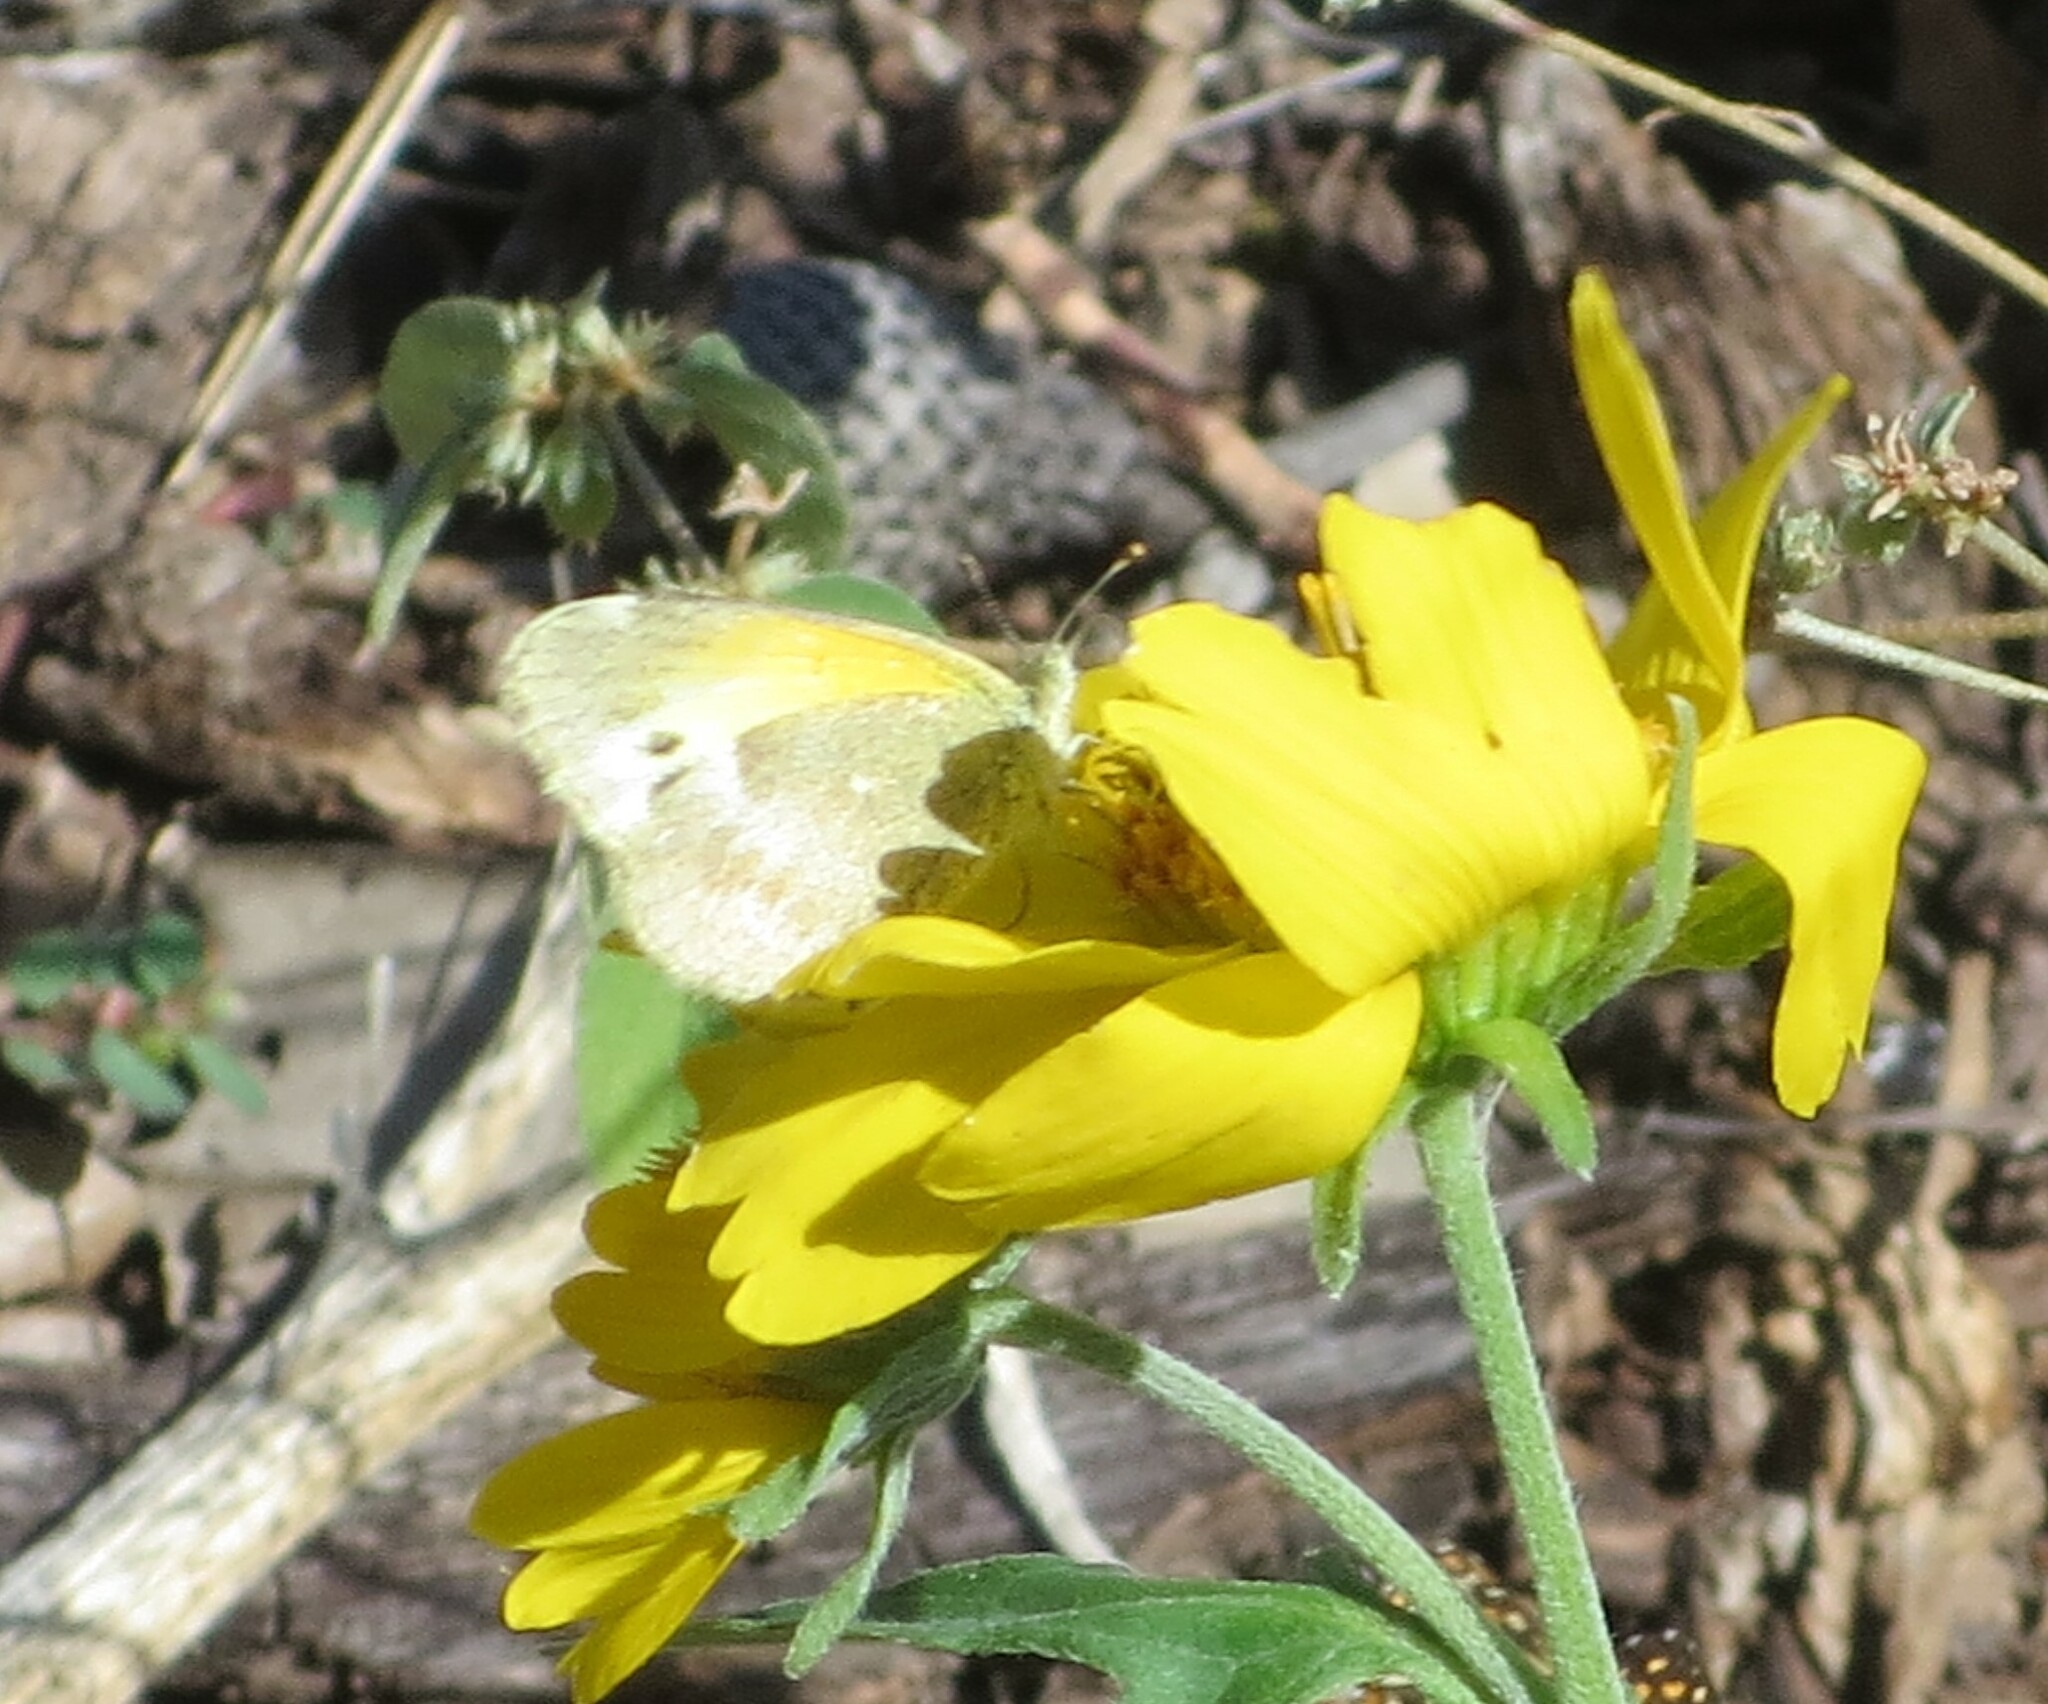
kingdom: Animalia
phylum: Arthropoda
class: Insecta
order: Lepidoptera
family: Pieridae
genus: Nathalis
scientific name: Nathalis iole
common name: Dainty sulphur
